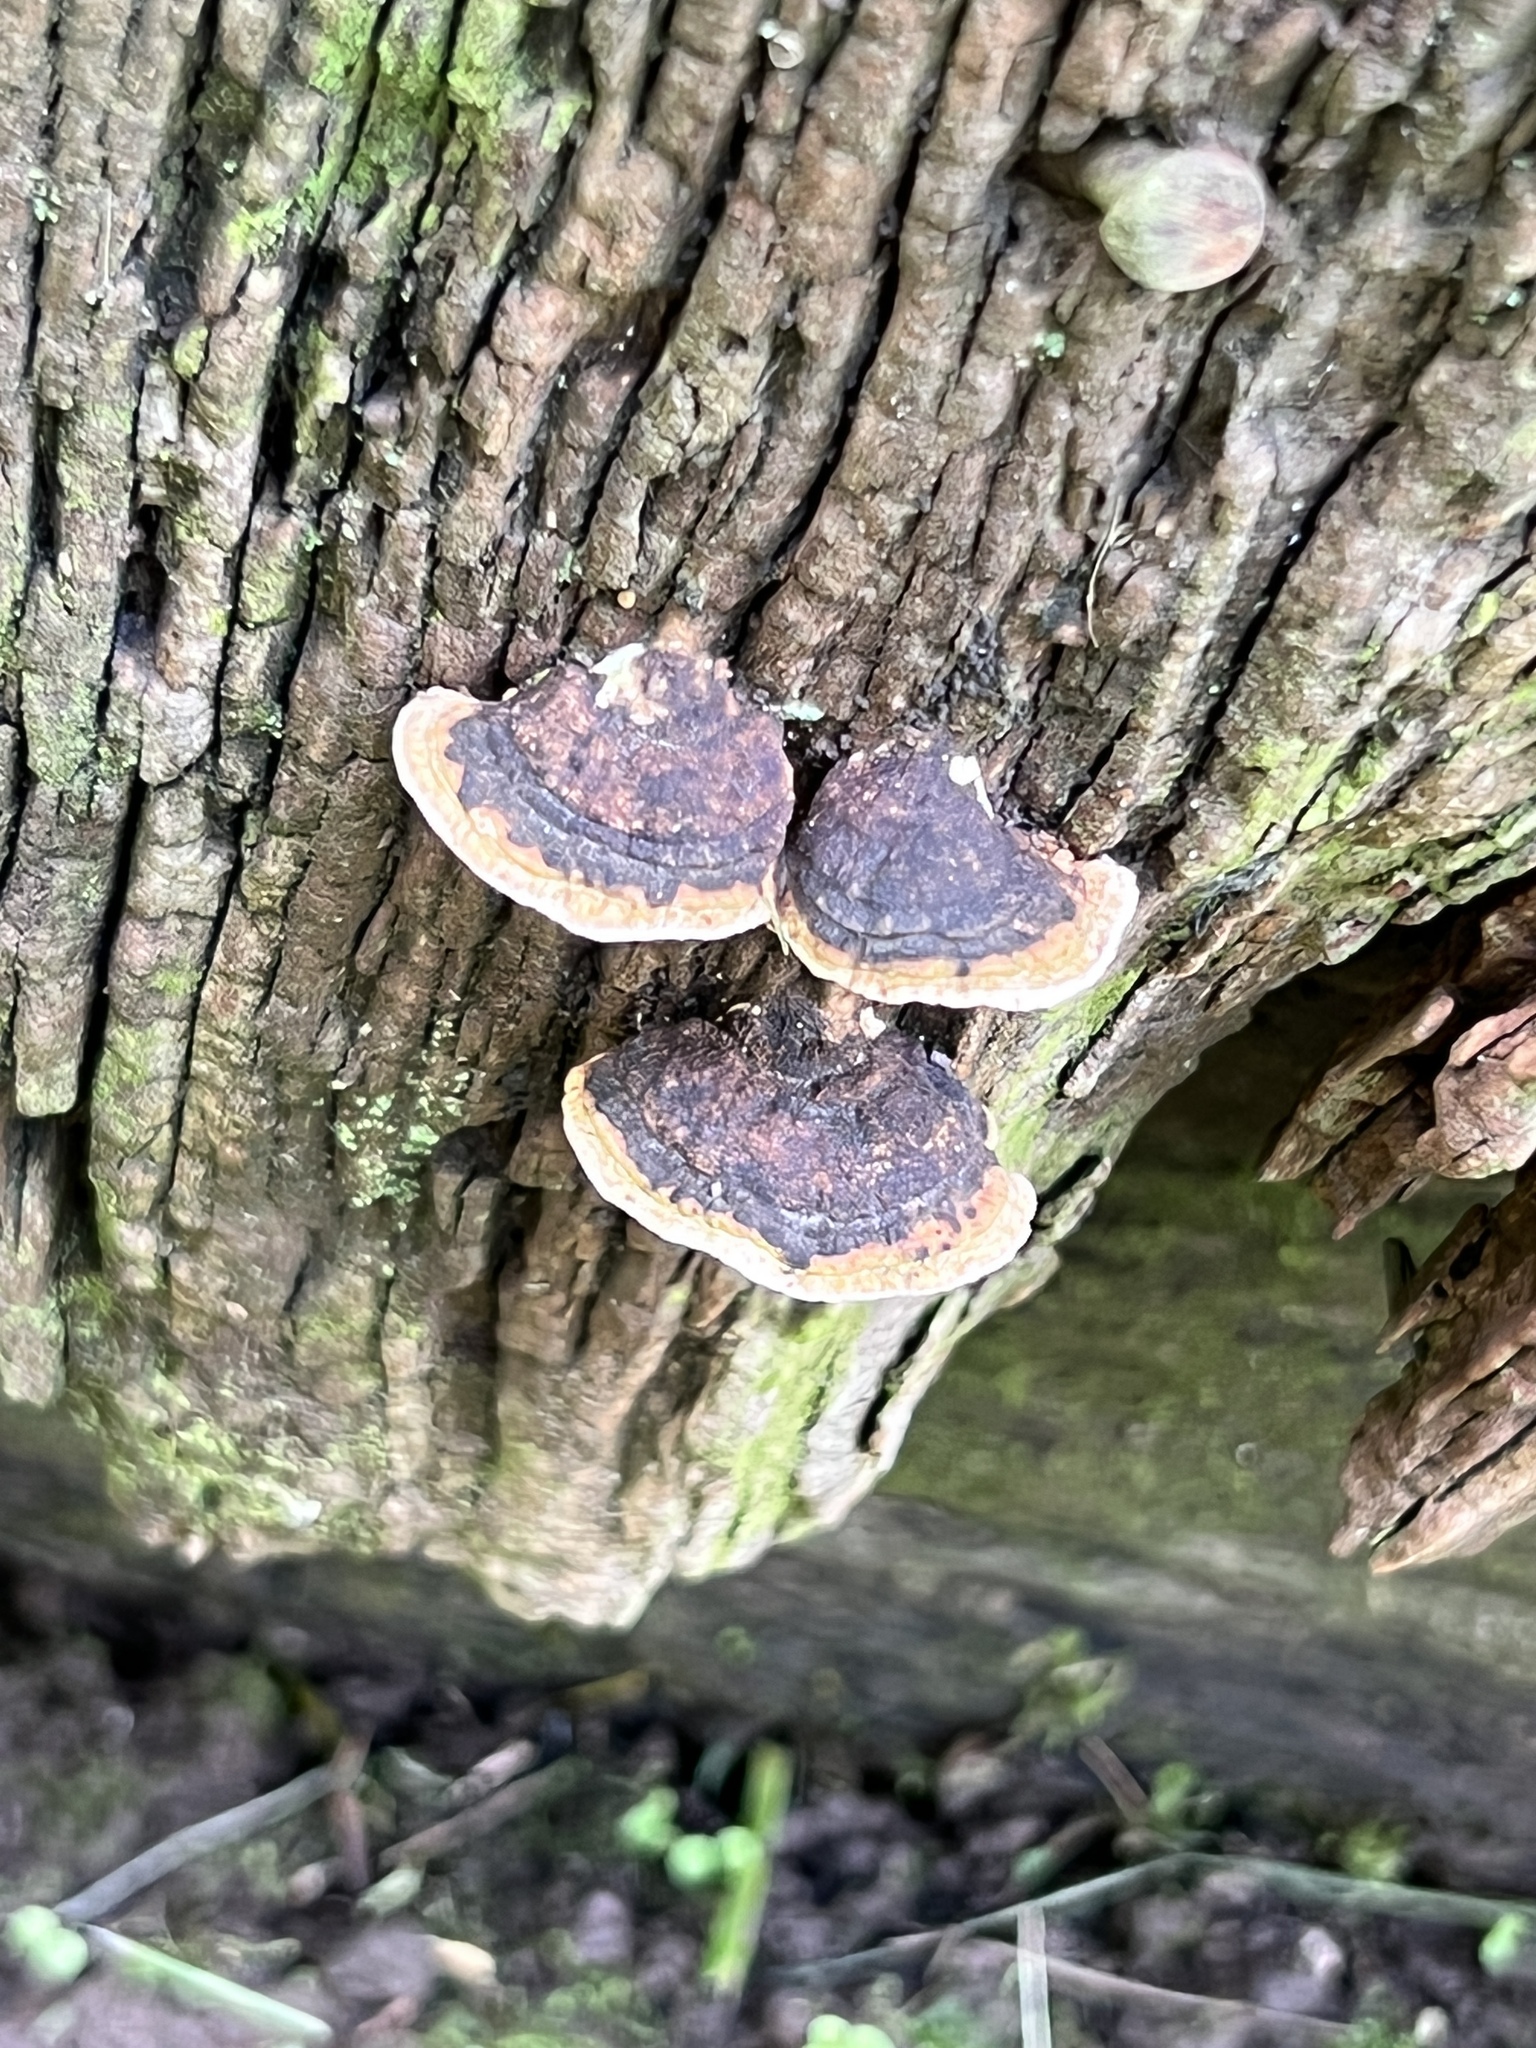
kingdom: Fungi
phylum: Basidiomycota
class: Agaricomycetes
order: Polyporales
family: Polyporaceae
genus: Perenniporia
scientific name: Perenniporia ohiensis
